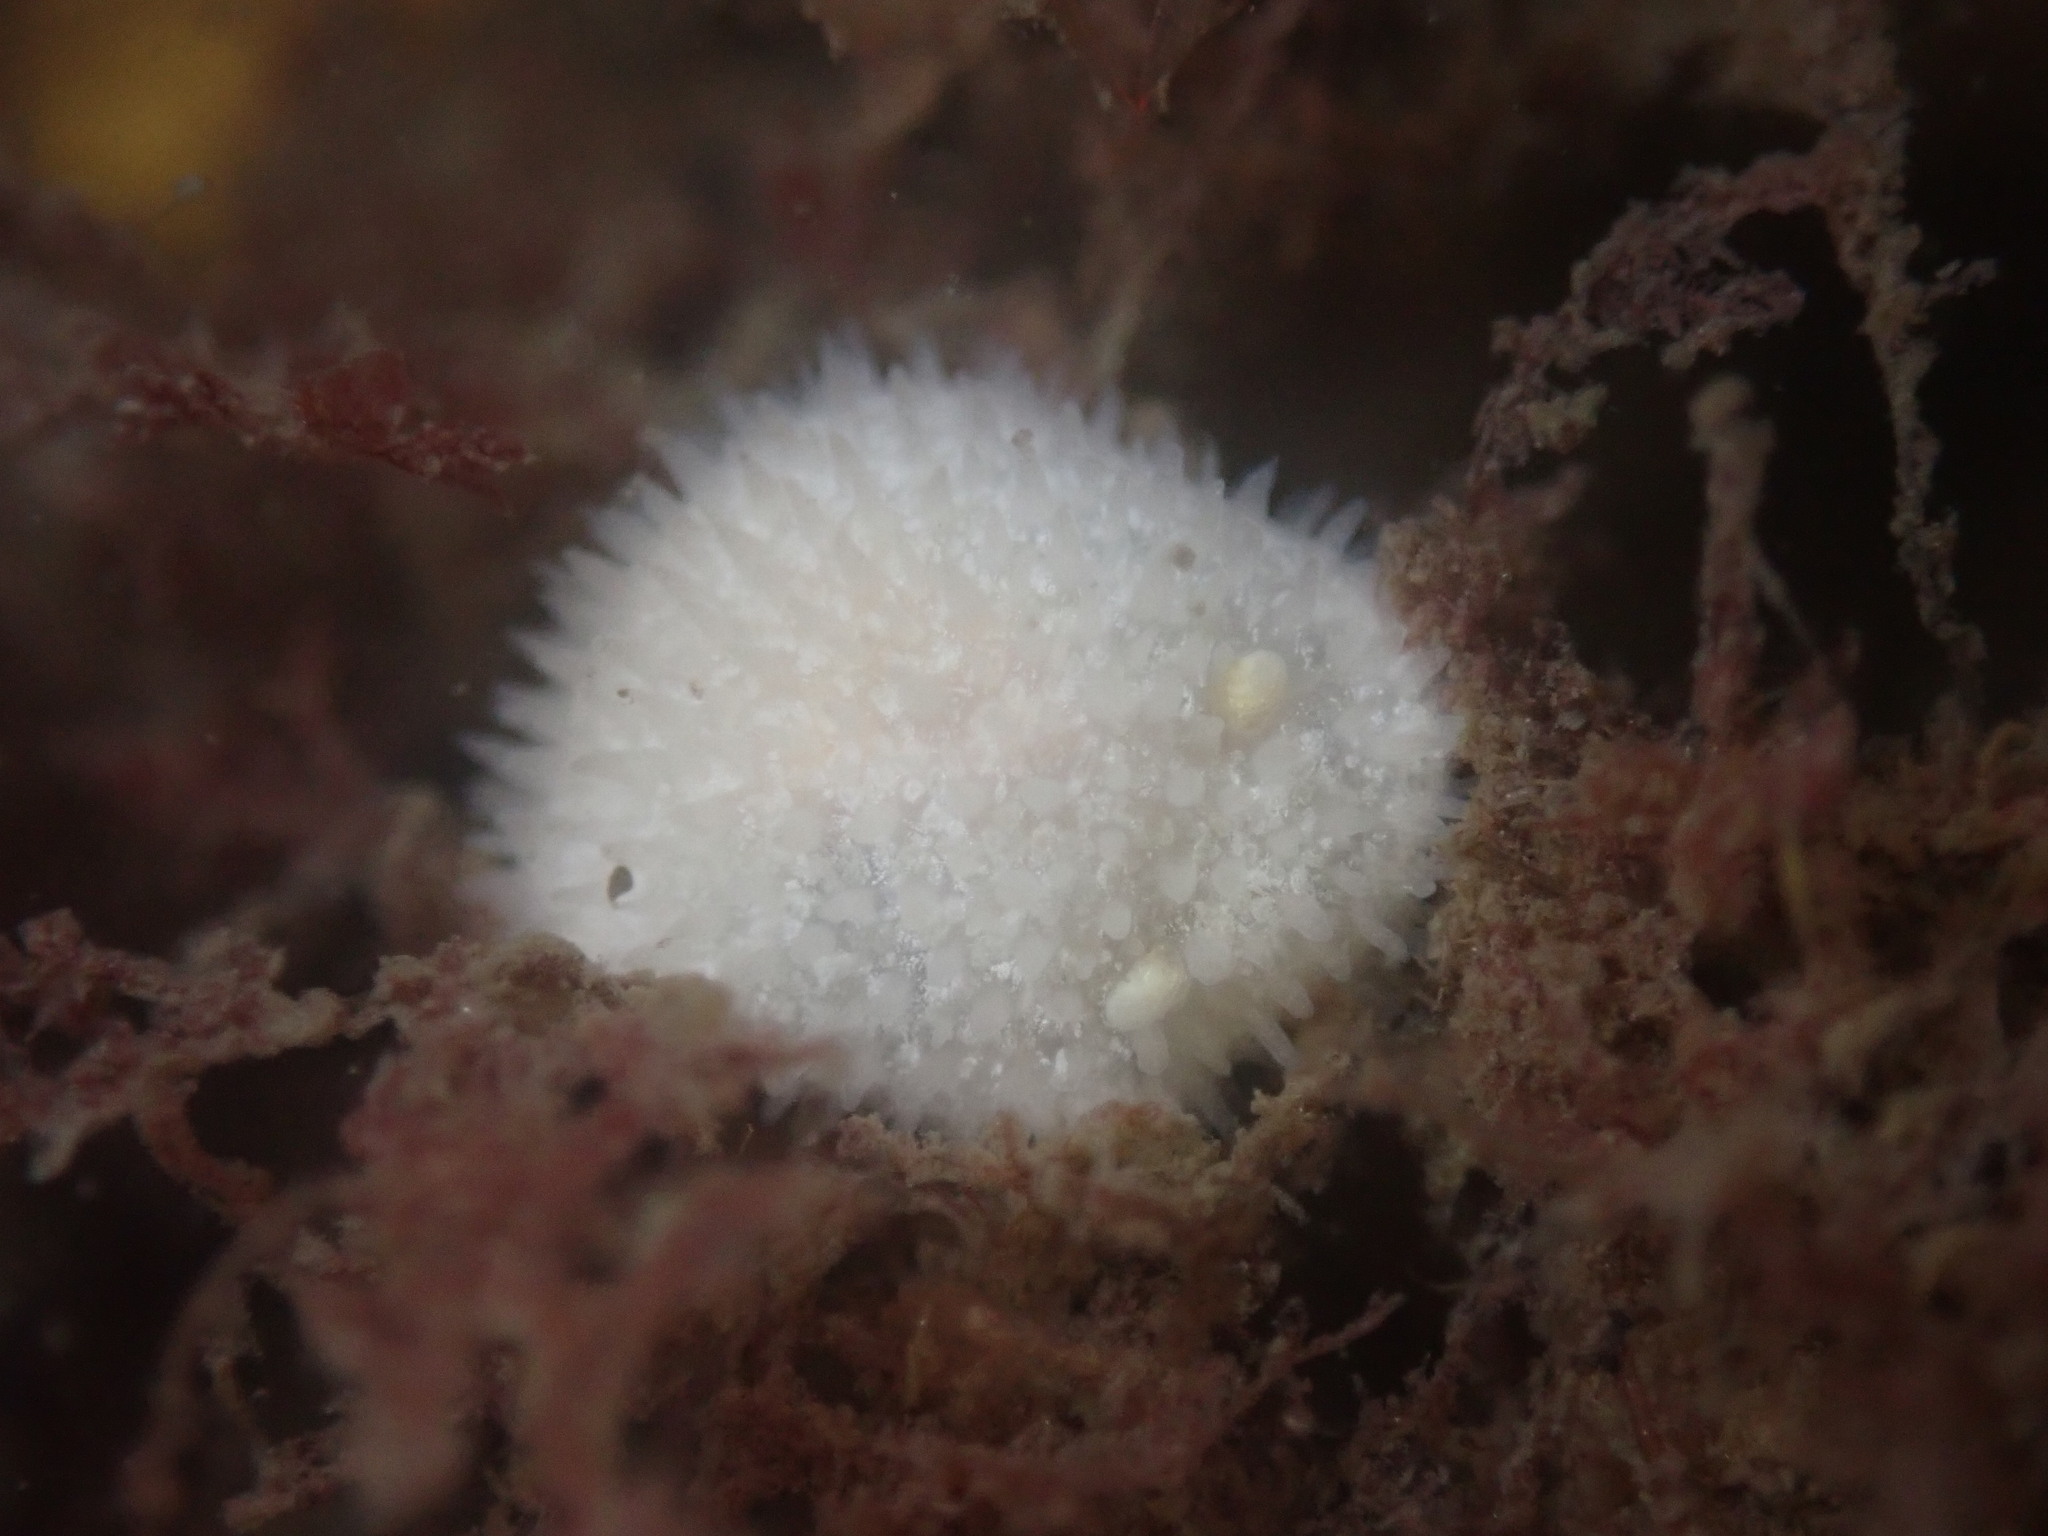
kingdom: Animalia
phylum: Mollusca
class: Gastropoda
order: Nudibranchia
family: Calycidorididae
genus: Diaphorodoris
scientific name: Diaphorodoris lirulatocauda
